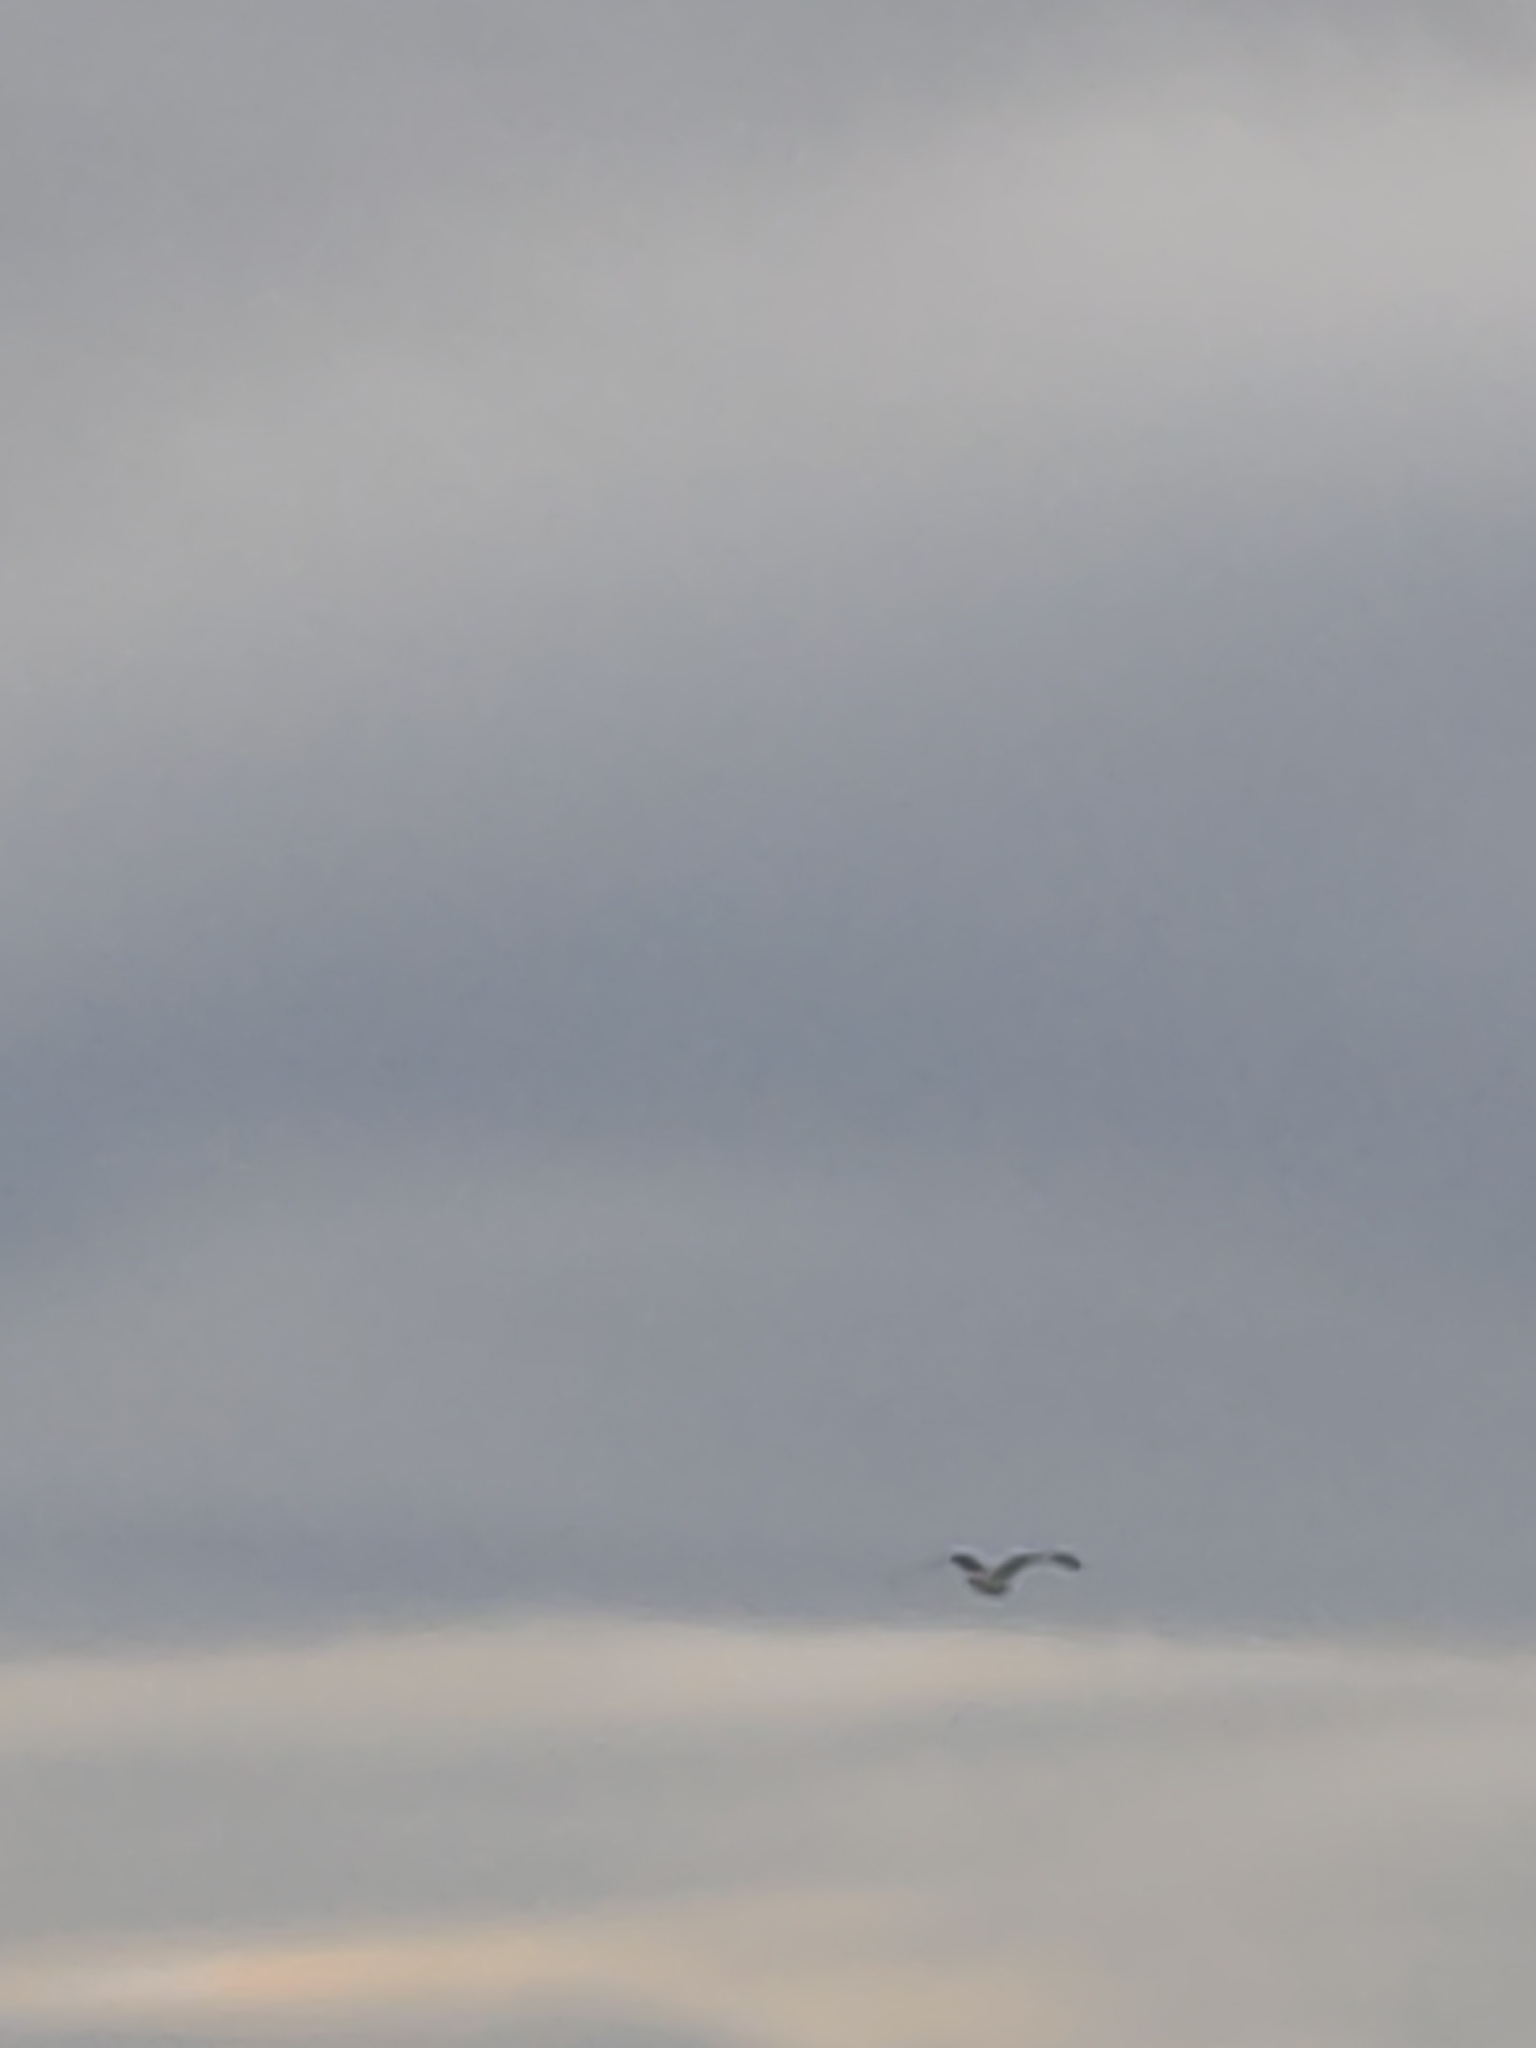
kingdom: Animalia
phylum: Chordata
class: Aves
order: Charadriiformes
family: Laridae
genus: Larus
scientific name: Larus dominicanus
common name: Kelp gull
